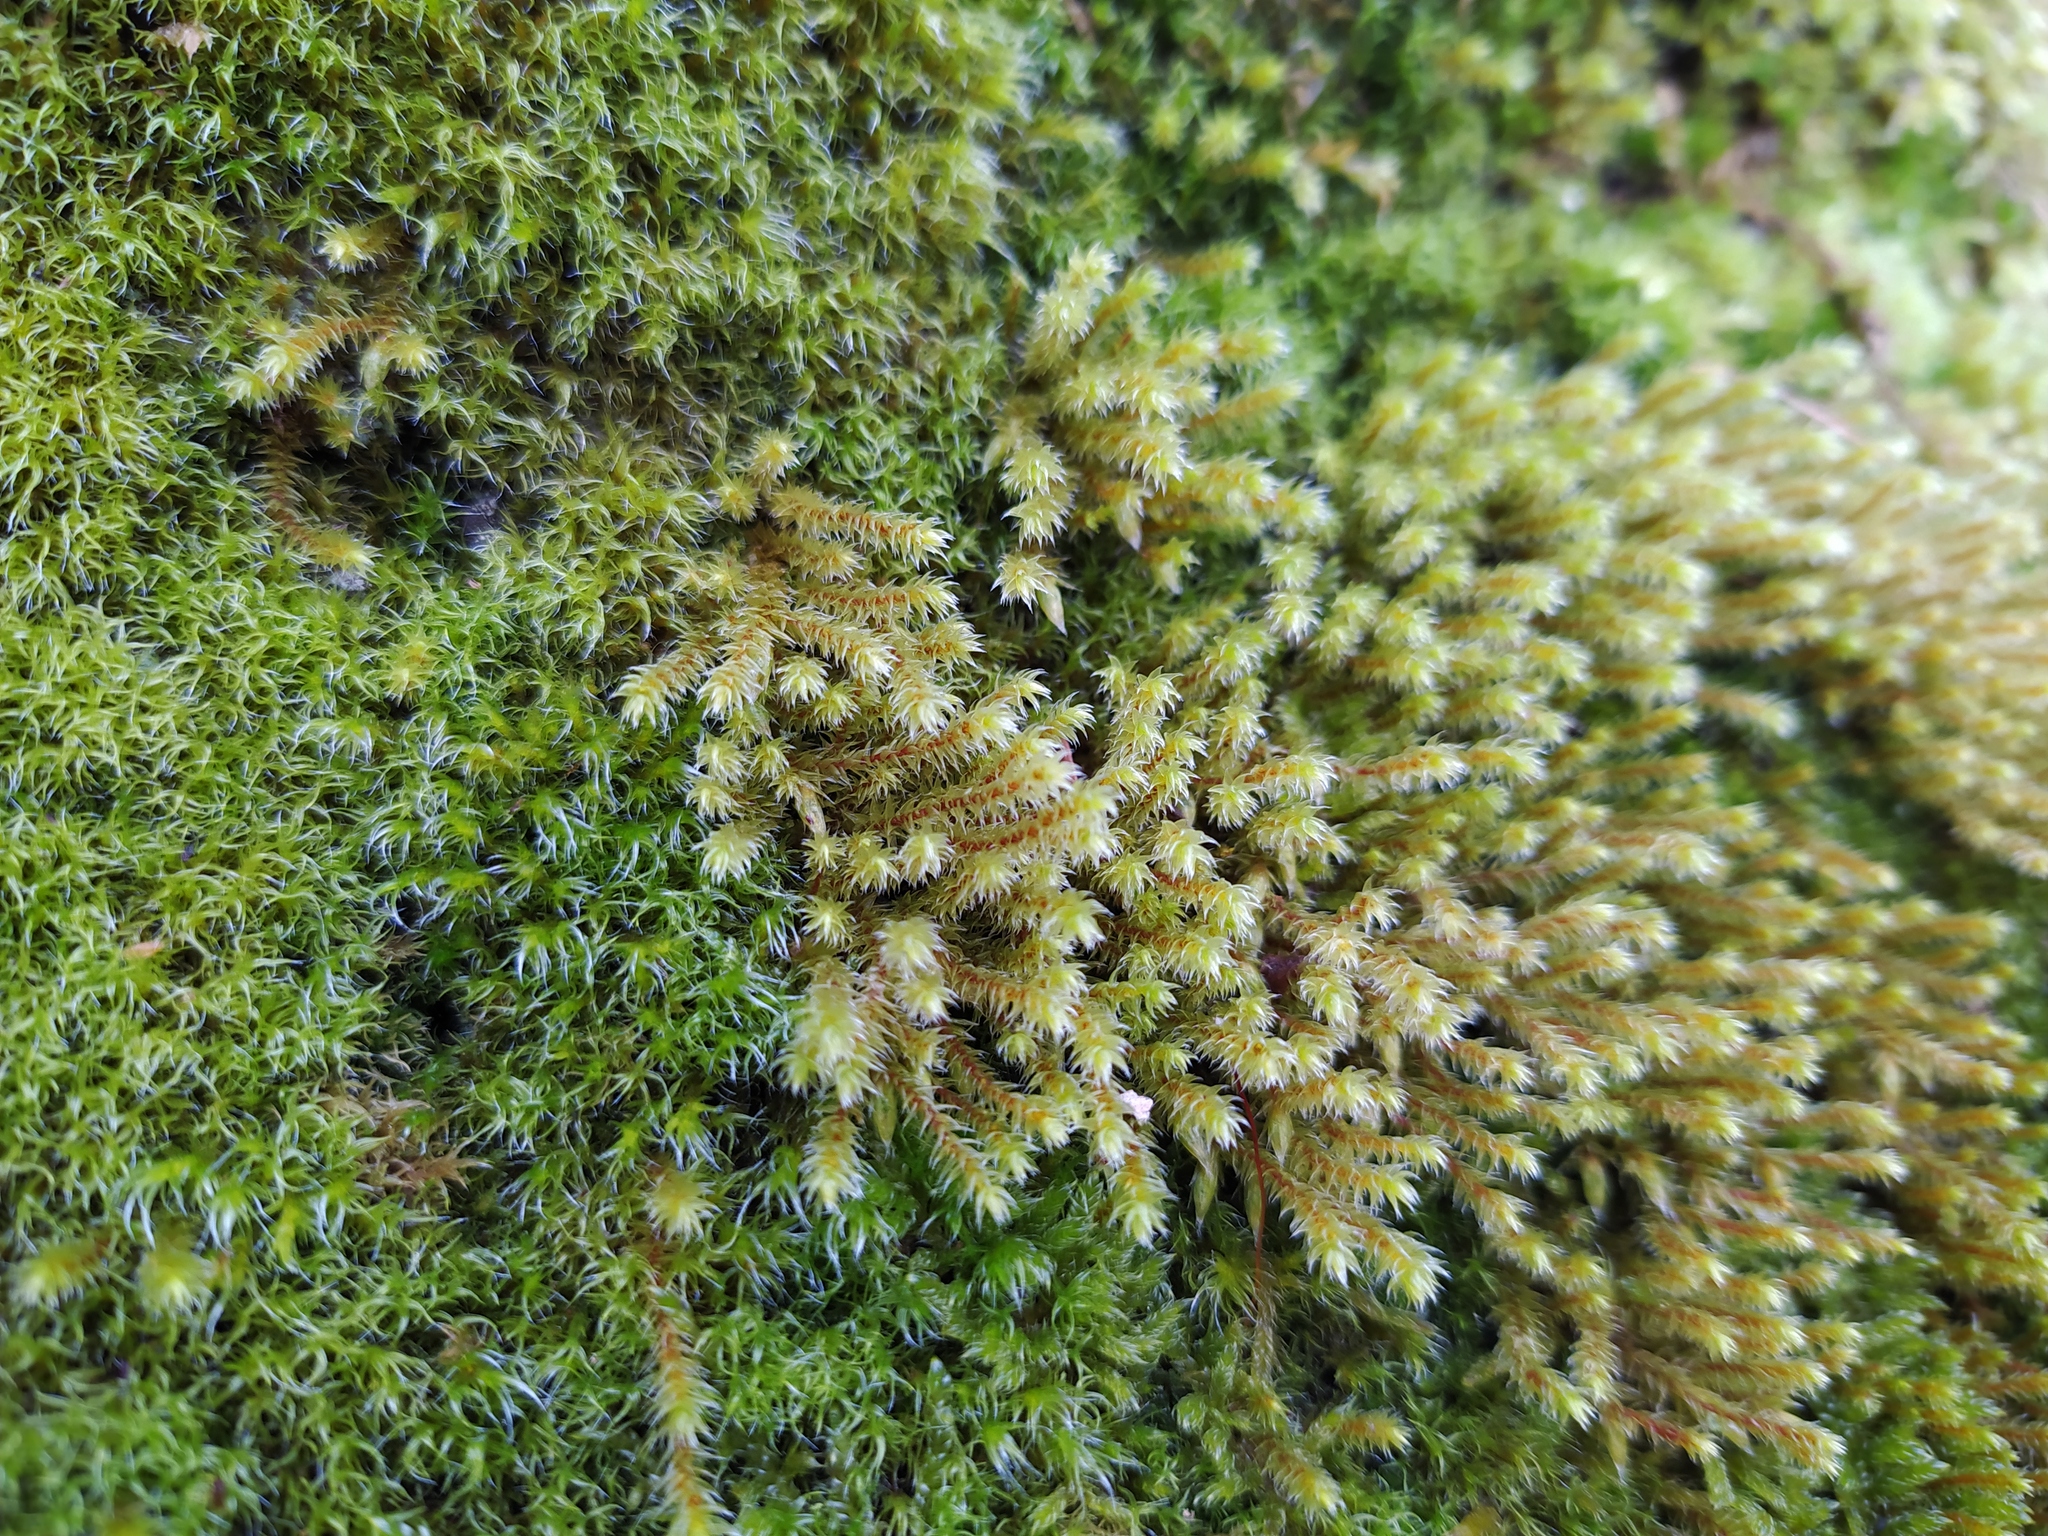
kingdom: Plantae
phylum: Bryophyta
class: Bryopsida
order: Hedwigiales
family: Hedwigiaceae
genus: Hedwigia
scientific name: Hedwigia ciliata
